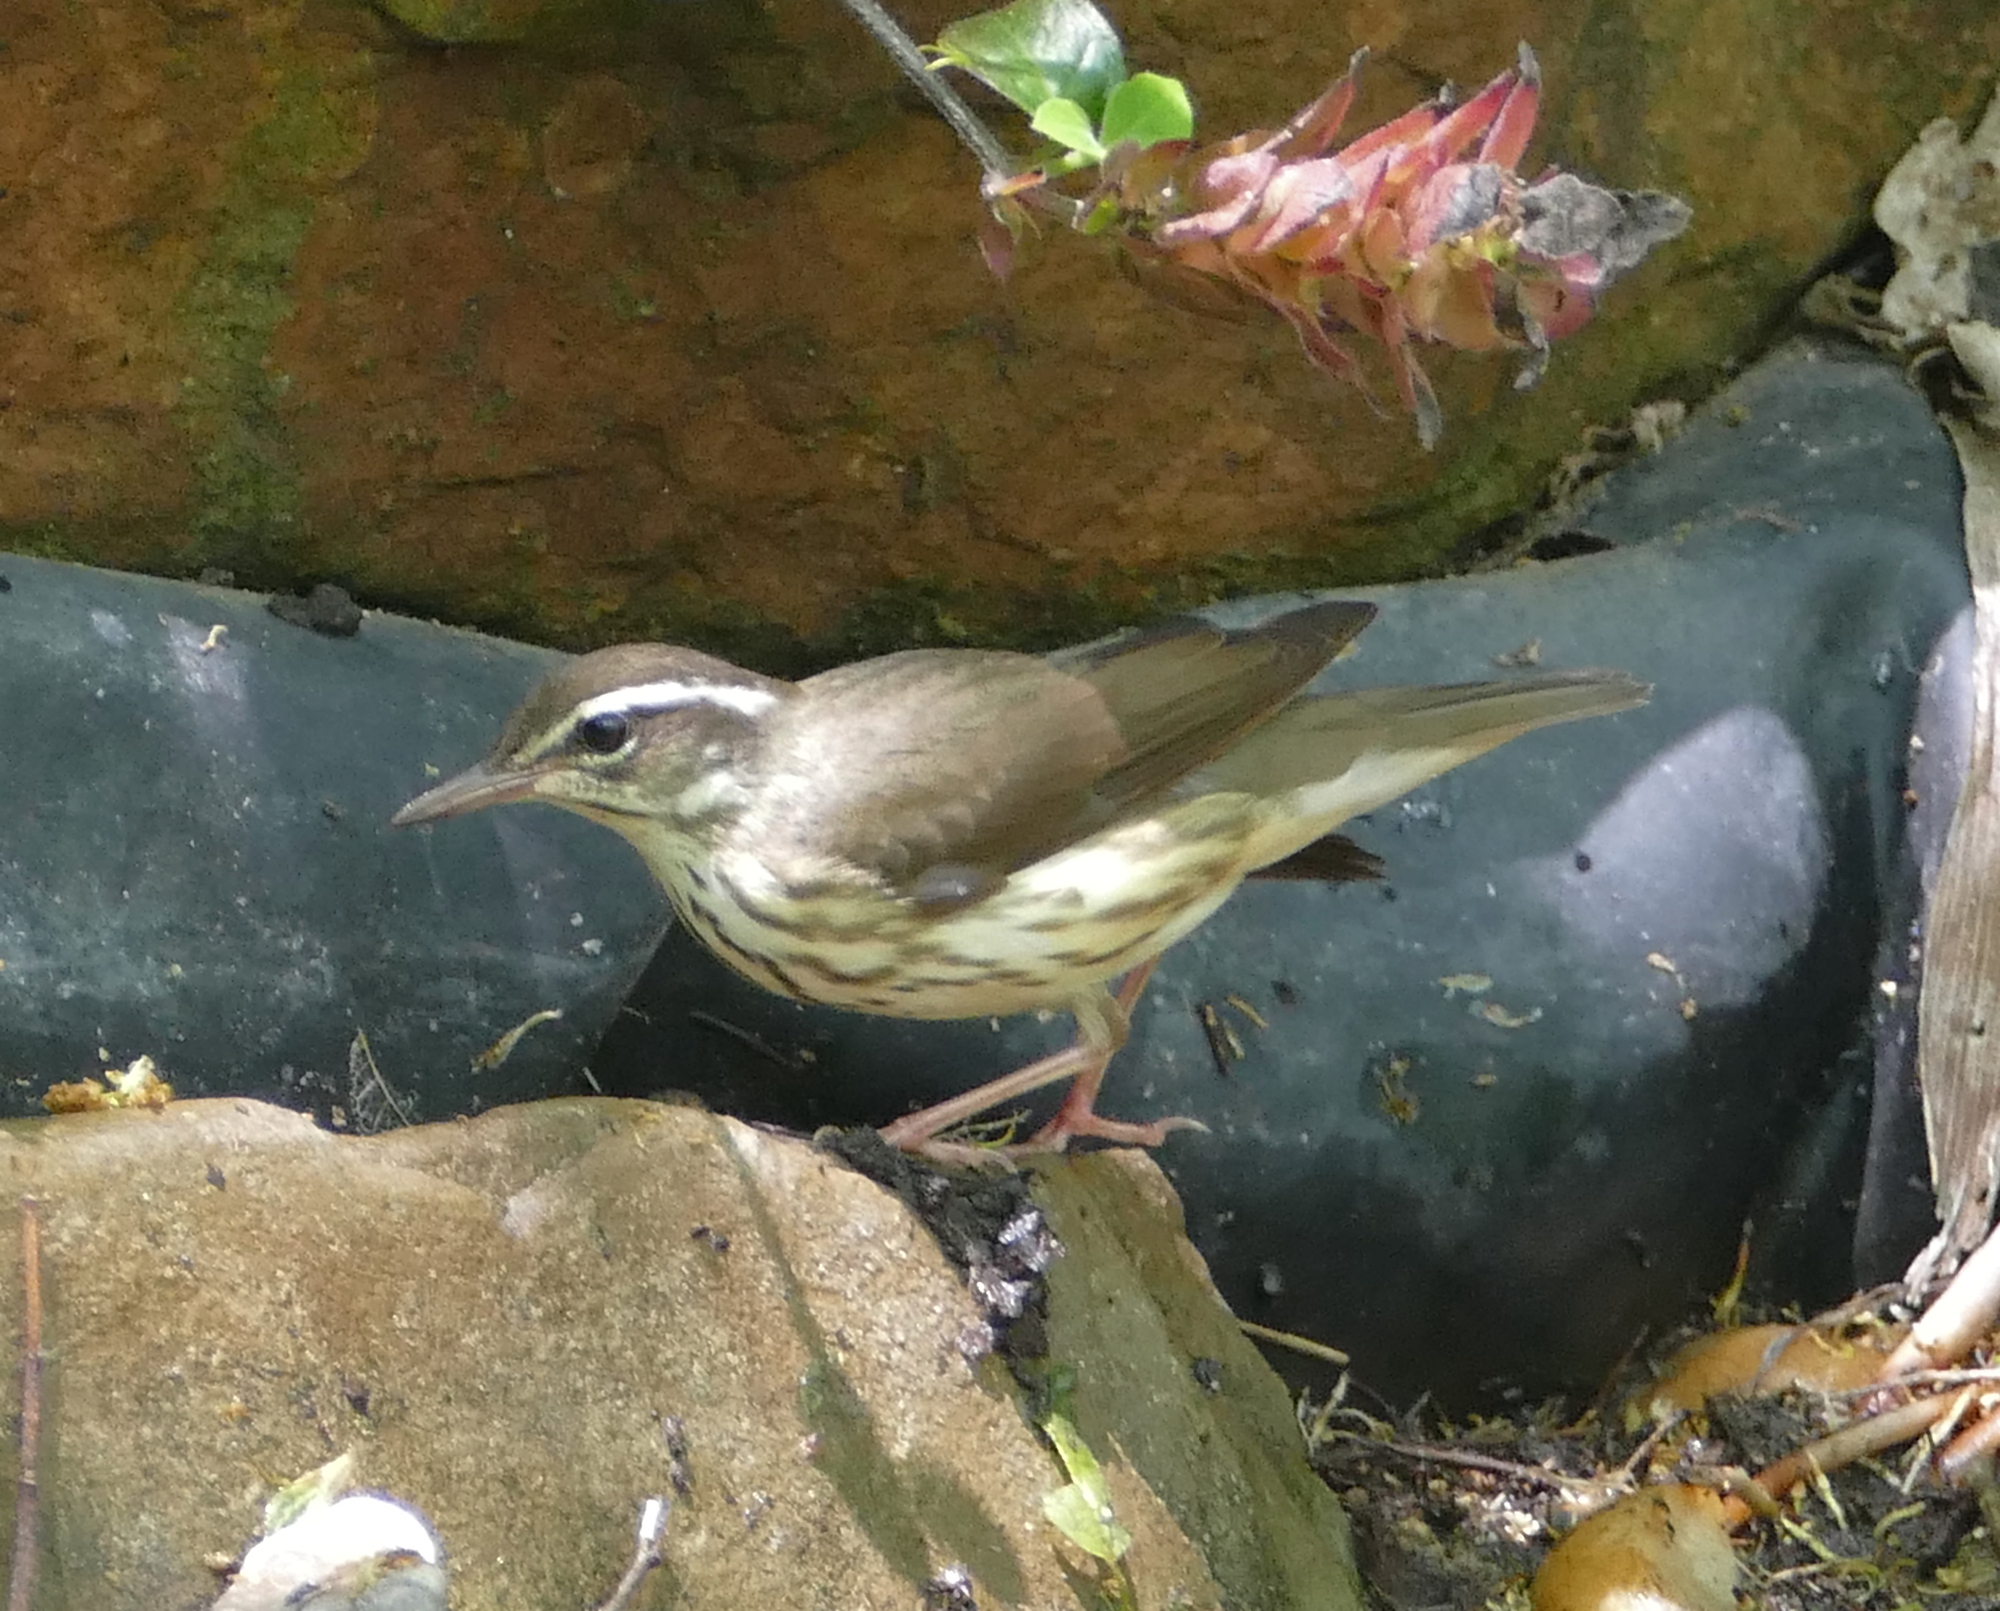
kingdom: Animalia
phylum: Chordata
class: Aves
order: Passeriformes
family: Parulidae
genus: Parkesia
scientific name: Parkesia motacilla
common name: Louisiana waterthrush
